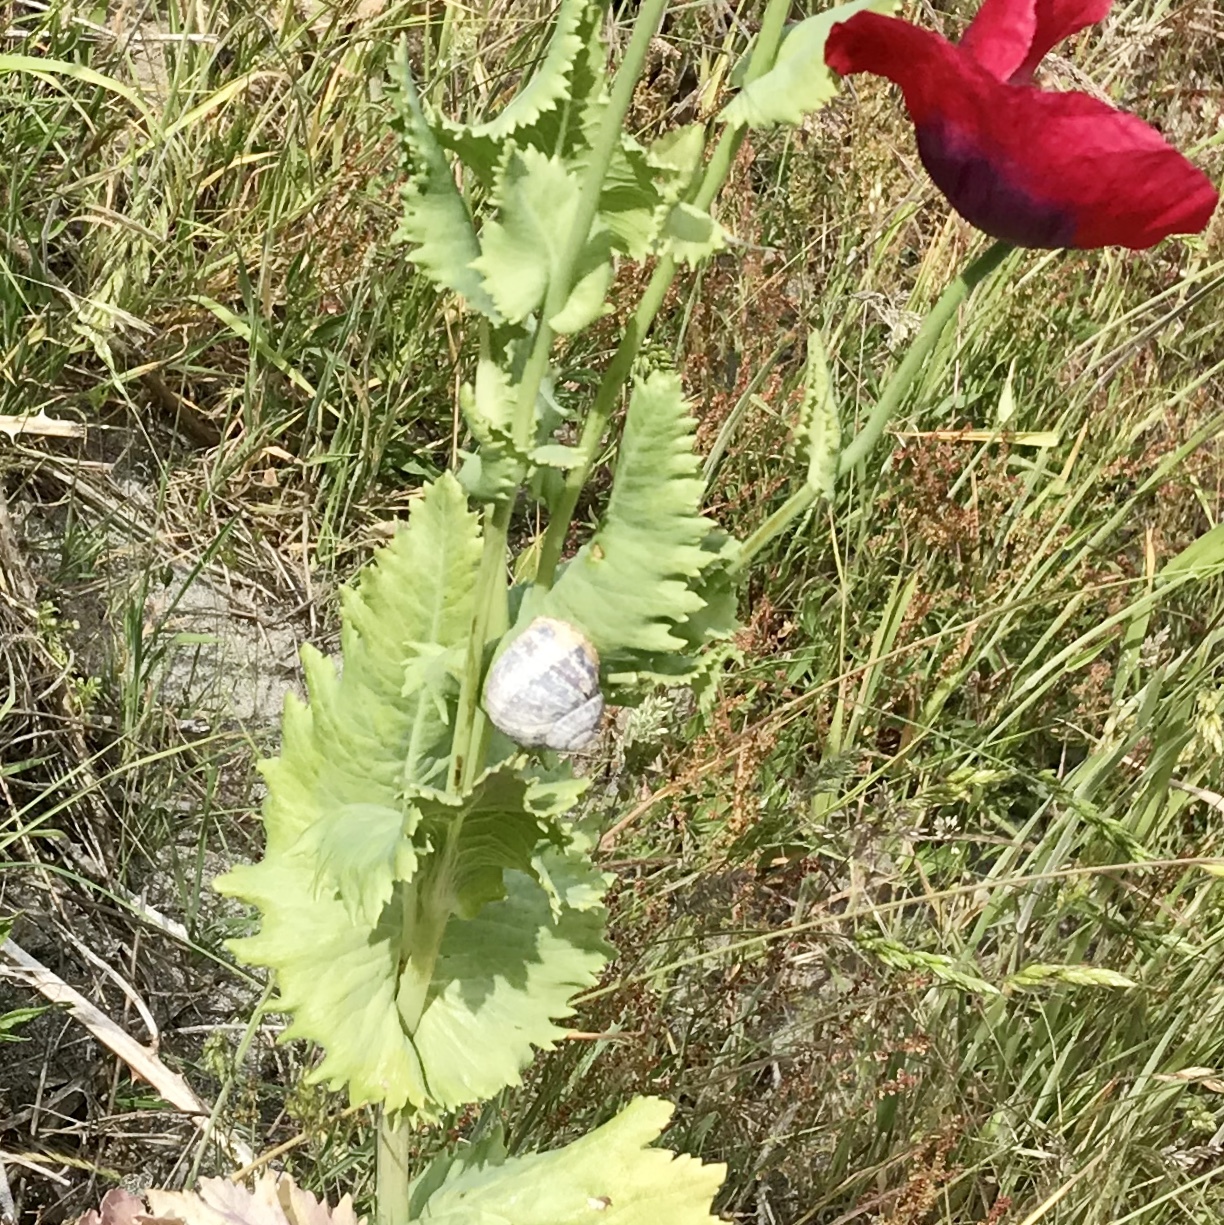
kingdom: Animalia
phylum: Mollusca
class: Gastropoda
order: Stylommatophora
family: Helicidae
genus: Cornu
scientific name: Cornu aspersum
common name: Brown garden snail
